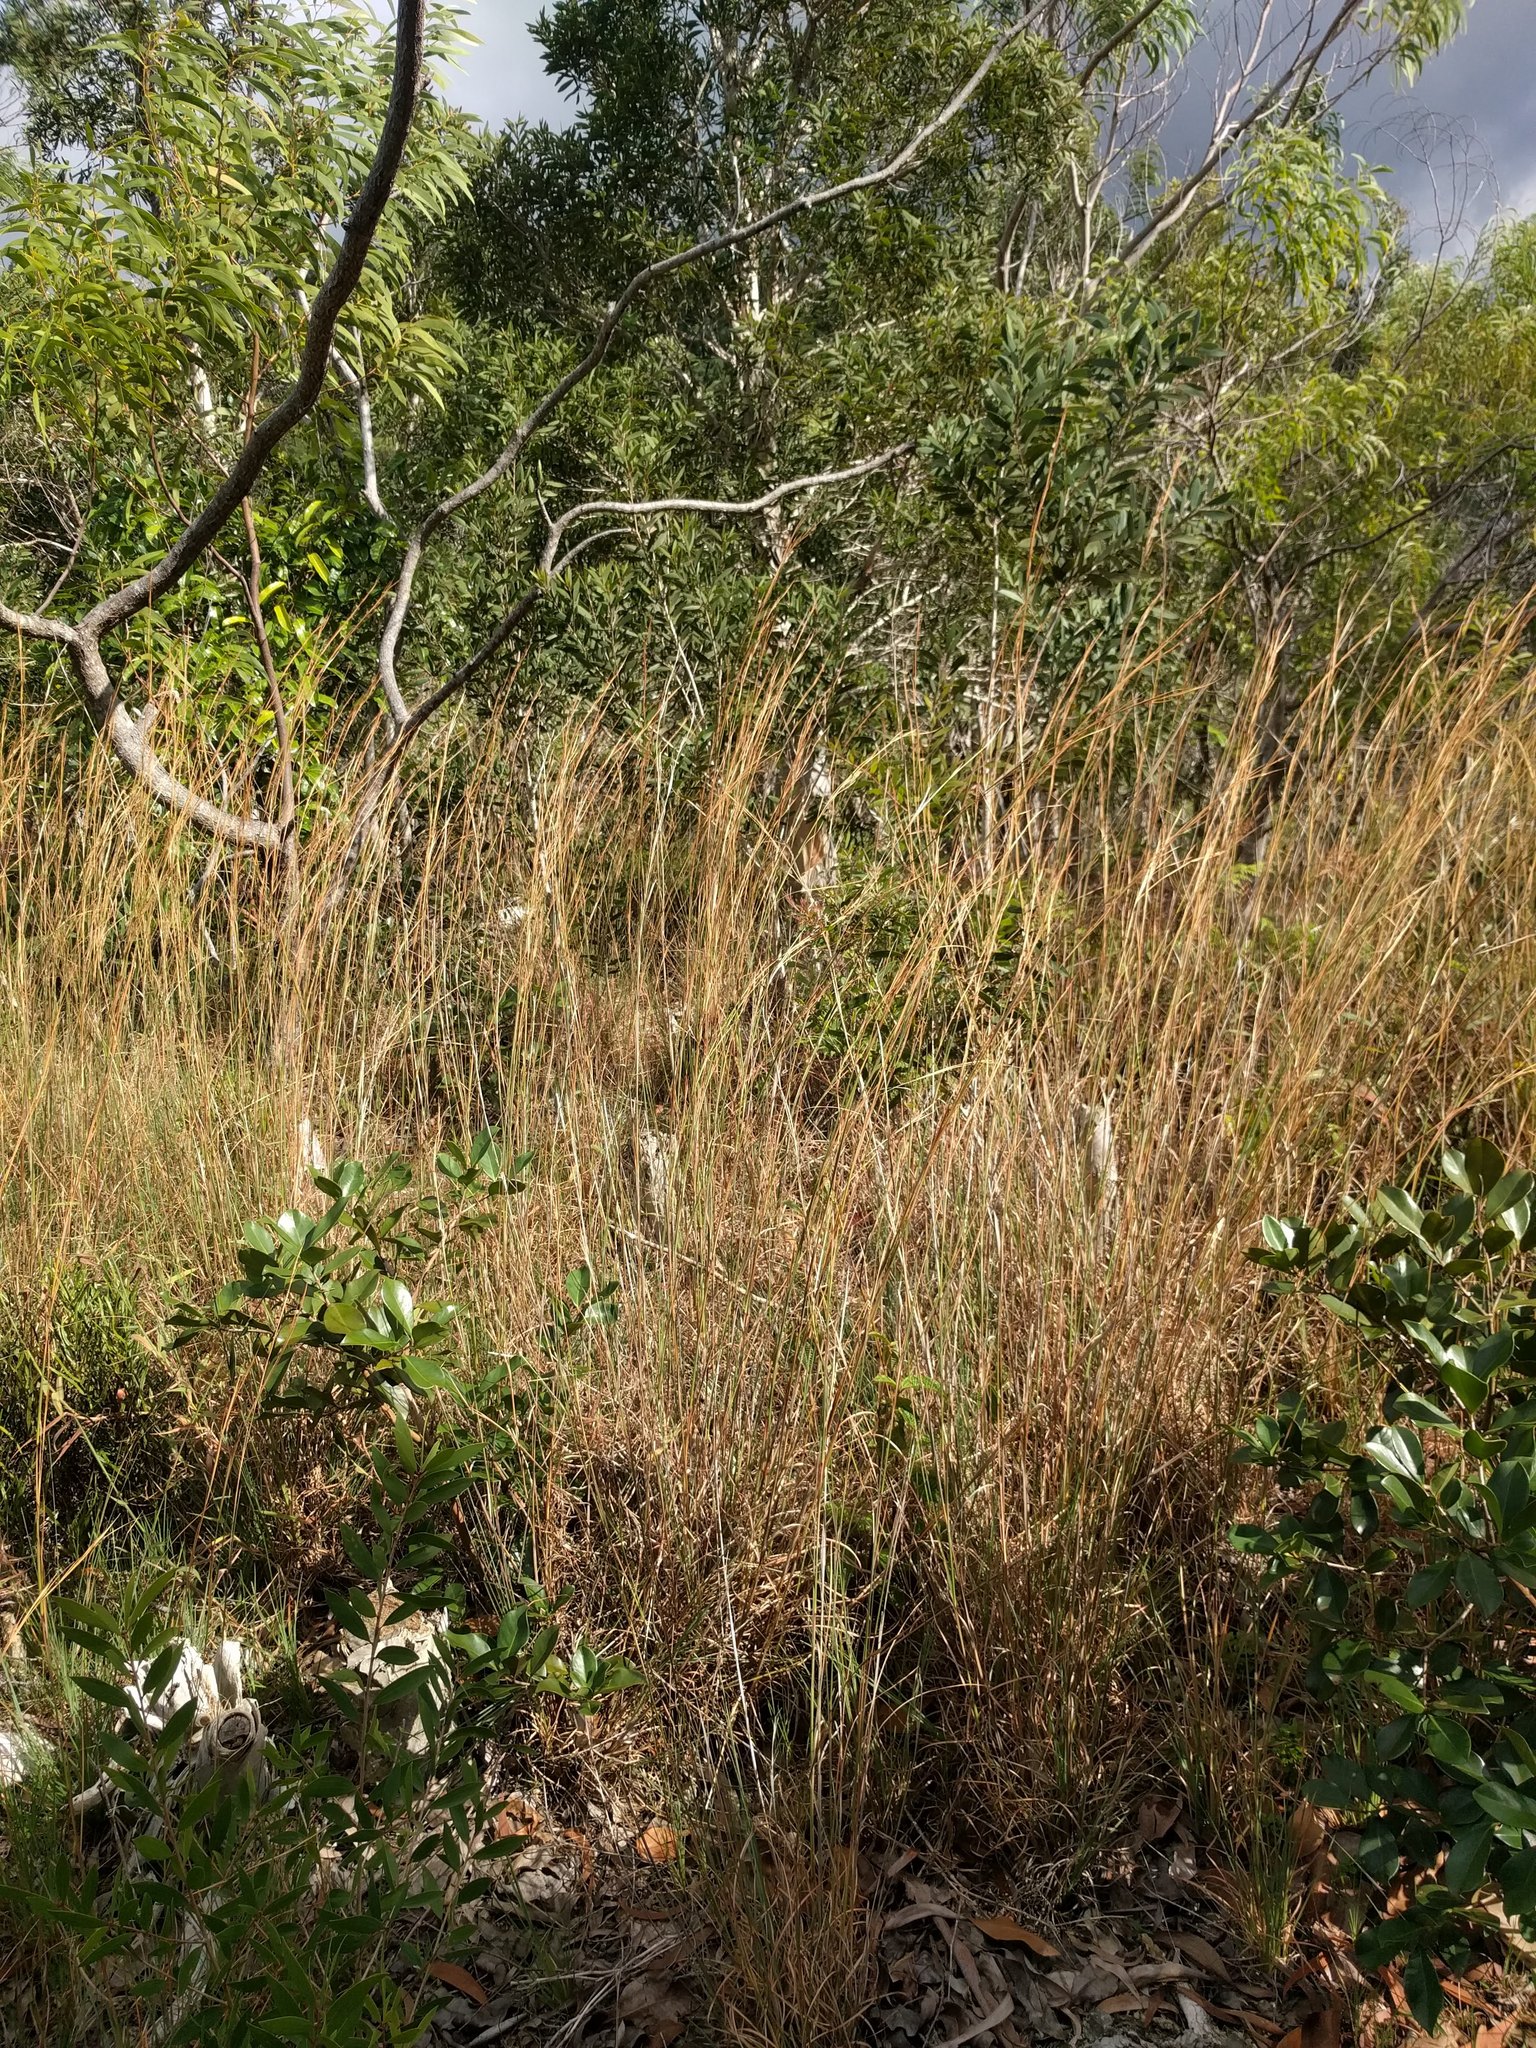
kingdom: Plantae
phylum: Tracheophyta
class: Liliopsida
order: Poales
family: Poaceae
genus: Andropogon
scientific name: Andropogon virginicus
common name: Broomsedge bluestem
